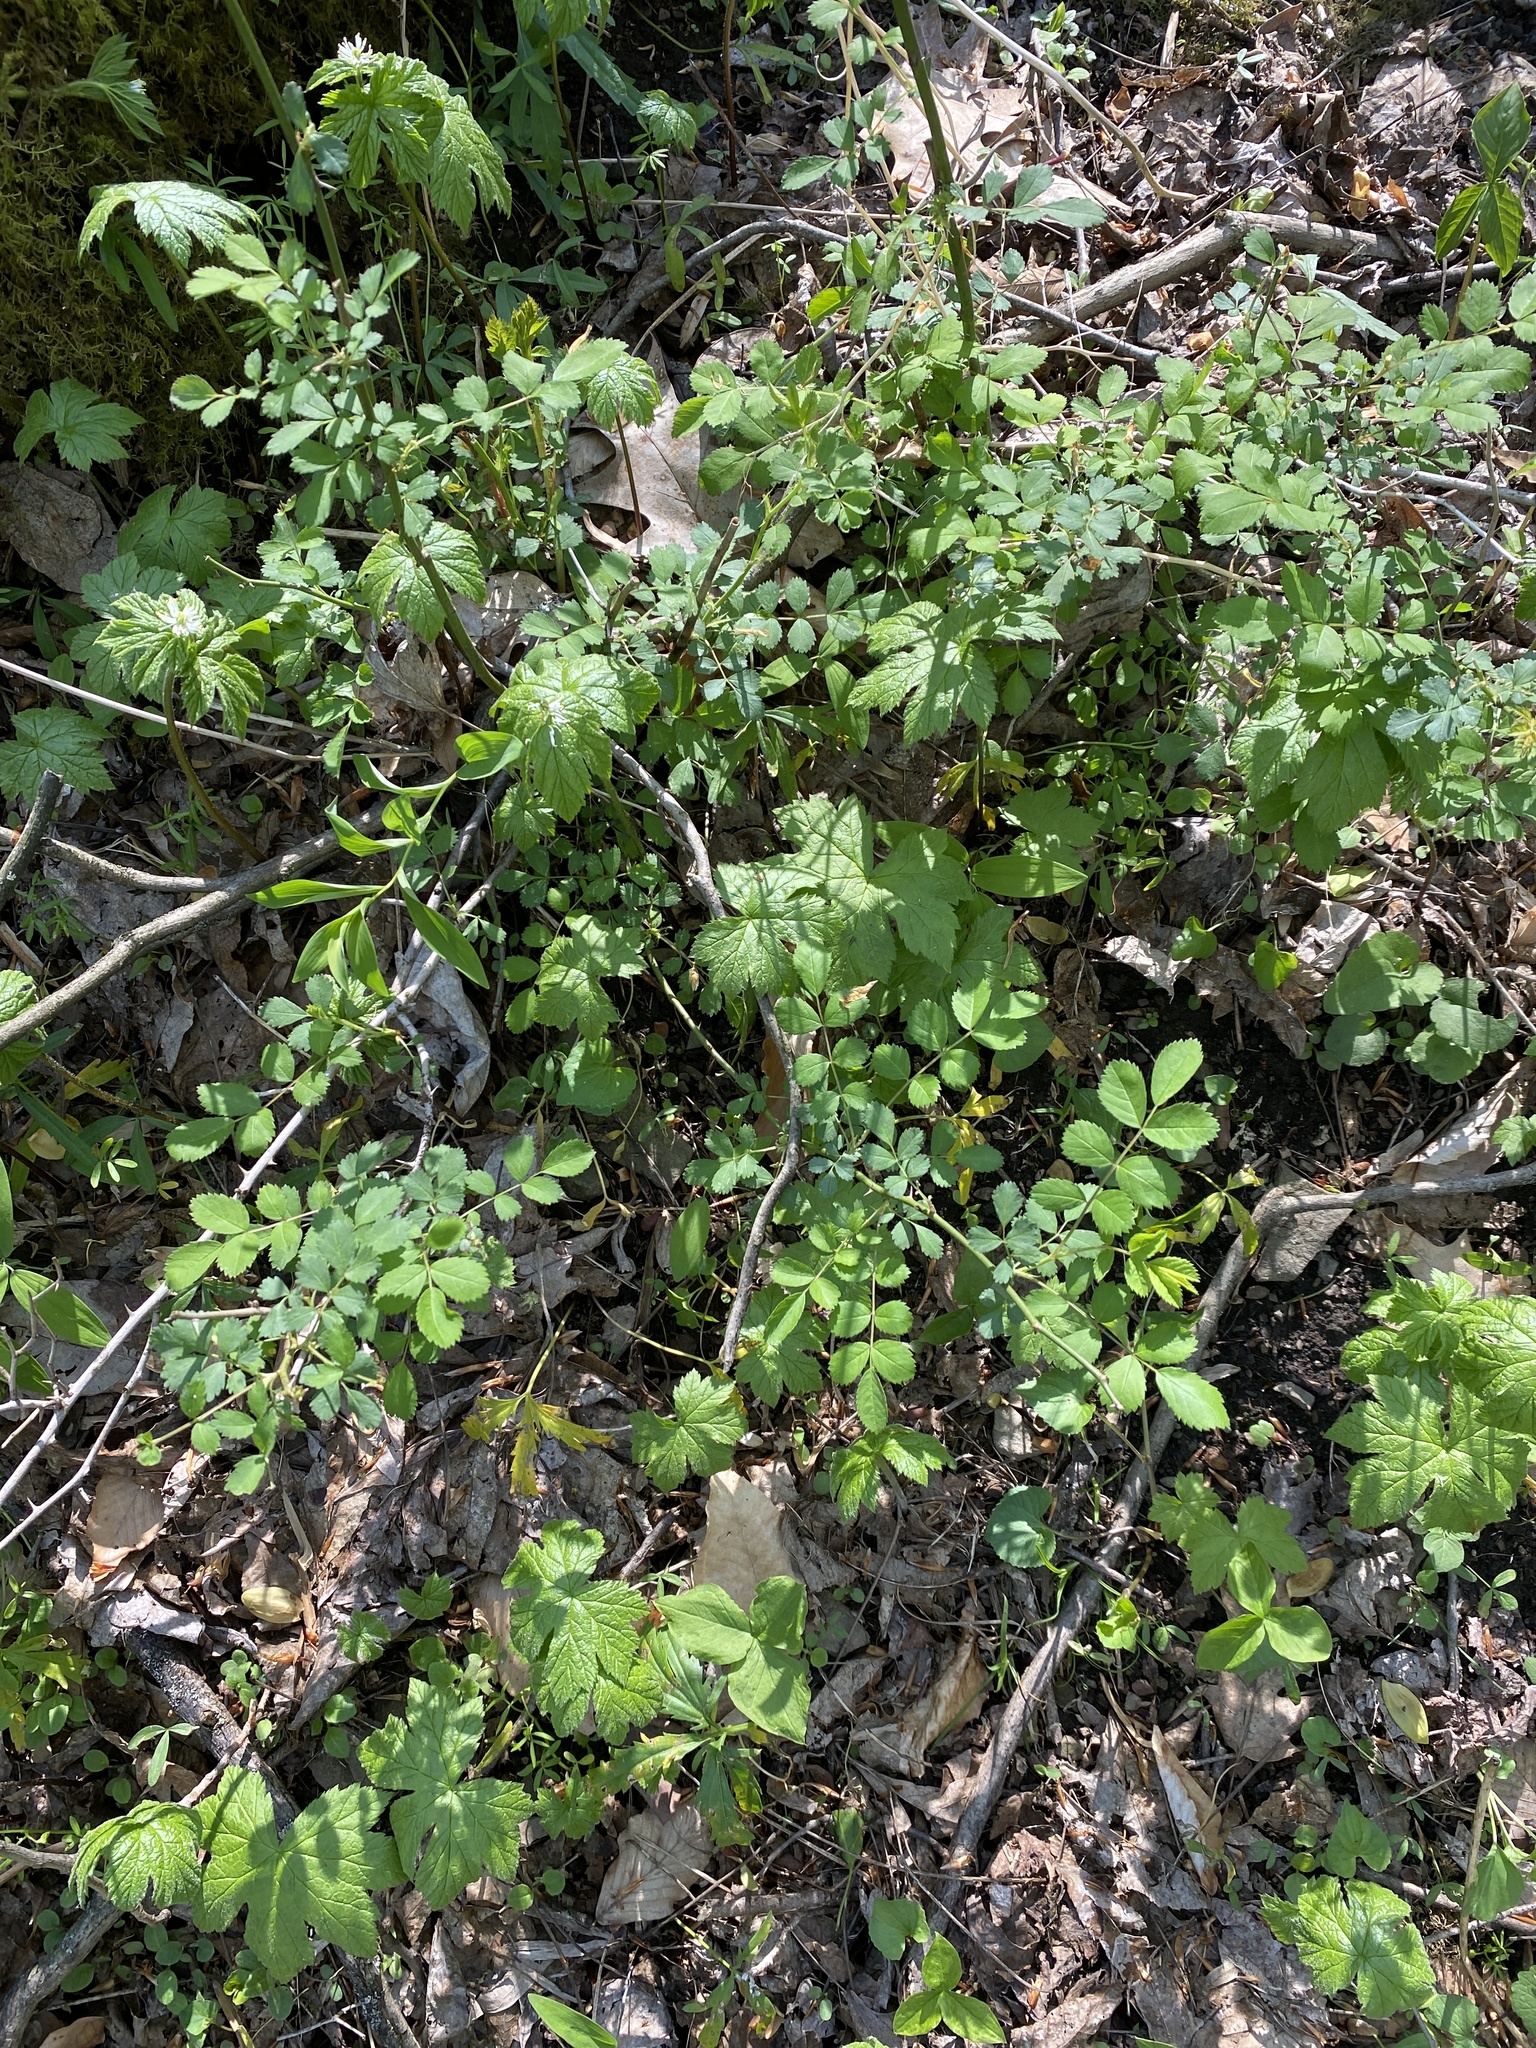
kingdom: Plantae
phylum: Tracheophyta
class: Magnoliopsida
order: Rosales
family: Rosaceae
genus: Rosa
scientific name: Rosa multiflora
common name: Multiflora rose
